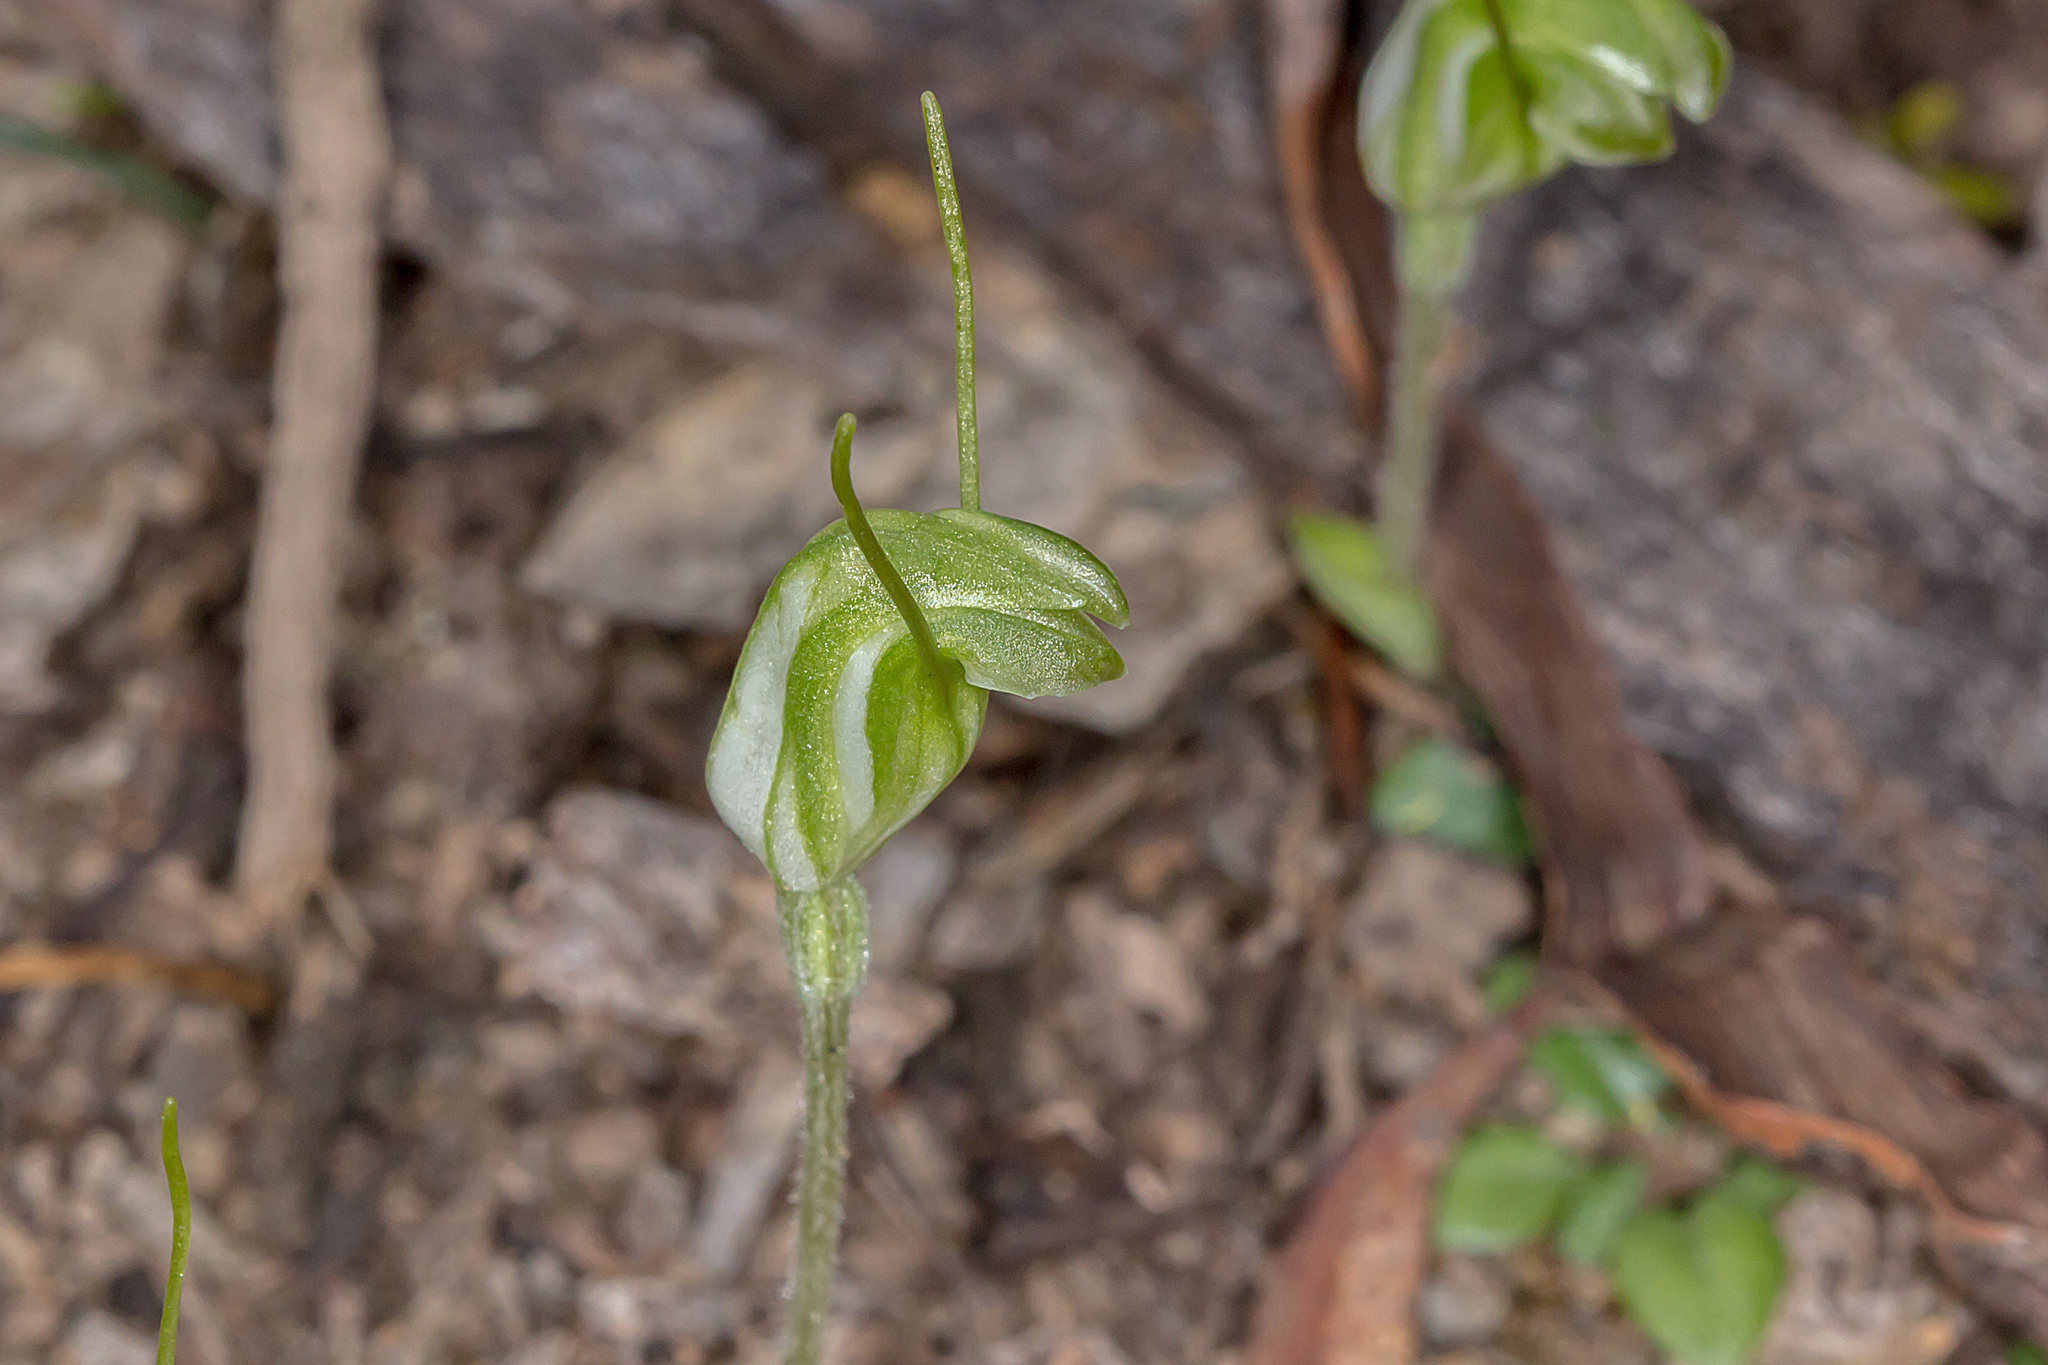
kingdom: Plantae
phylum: Tracheophyta
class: Liliopsida
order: Asparagales
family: Orchidaceae
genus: Pterostylis
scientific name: Pterostylis nana
